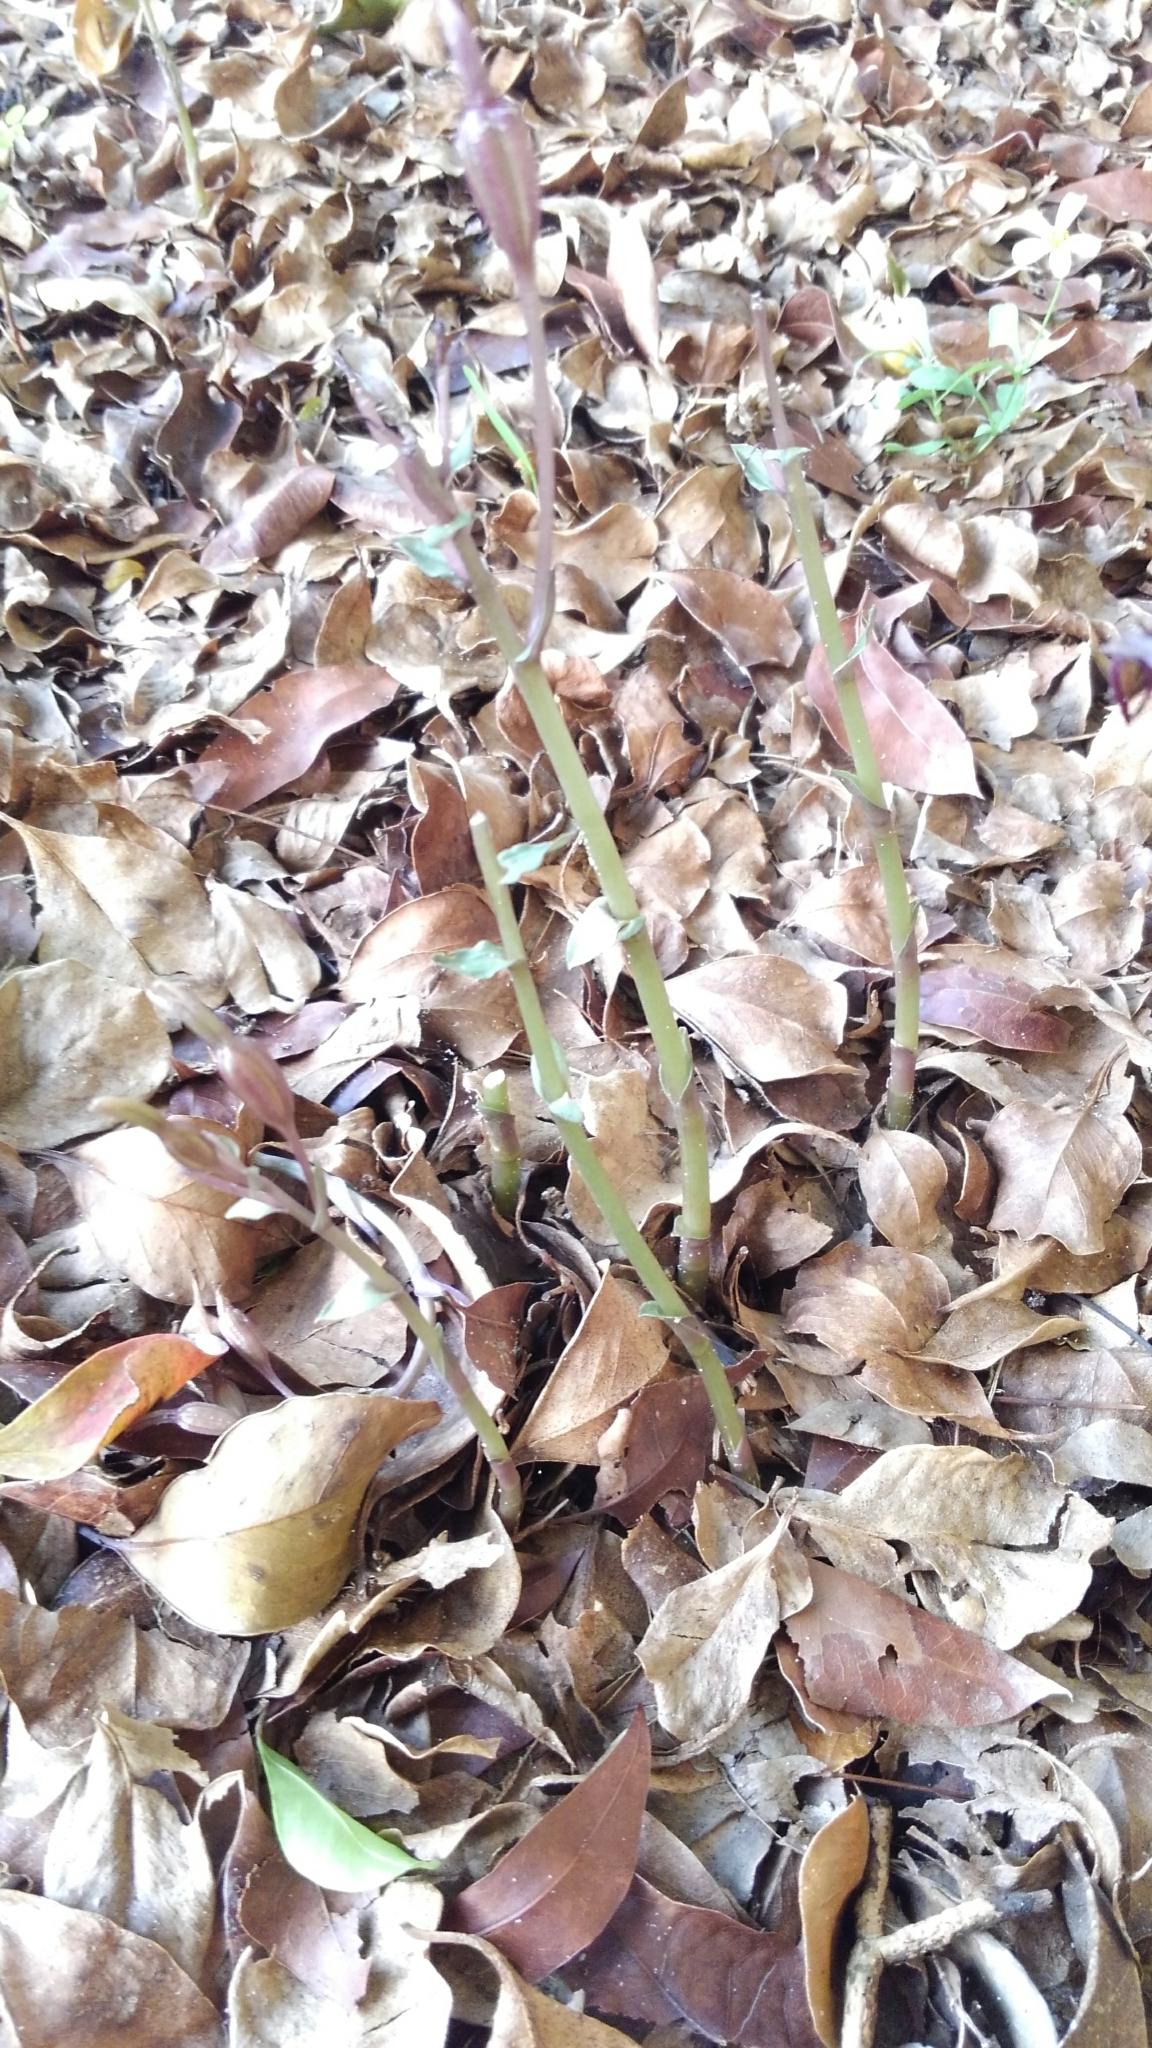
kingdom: Plantae
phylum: Tracheophyta
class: Liliopsida
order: Asparagales
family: Orchidaceae
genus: Triphora
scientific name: Triphora gentianoides
